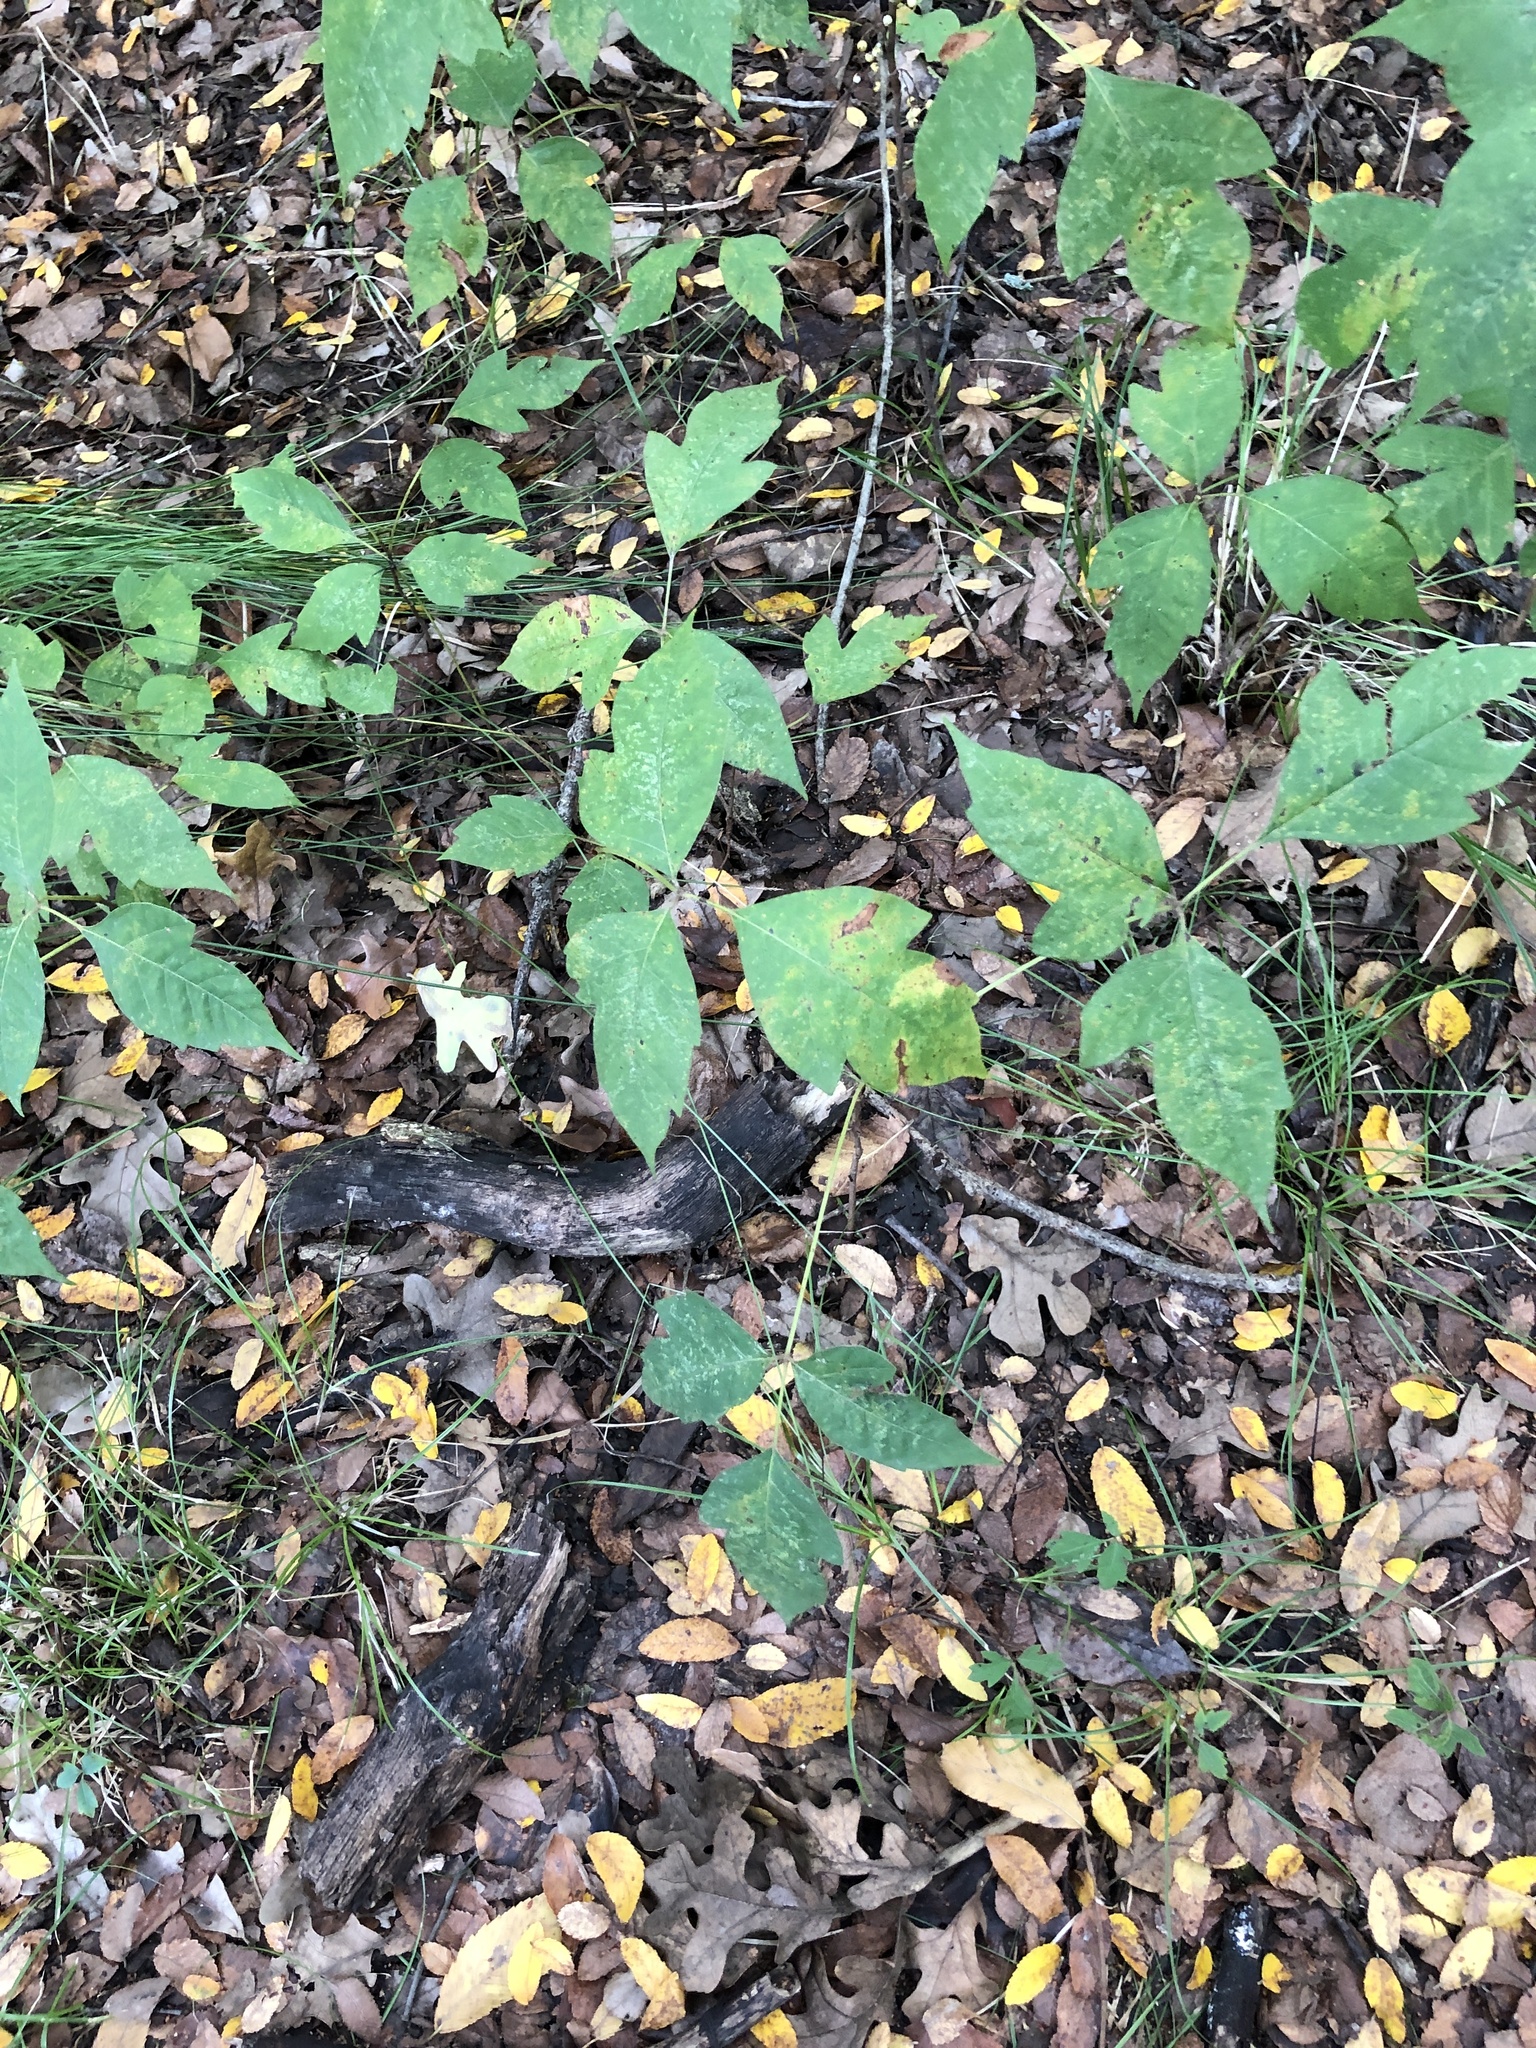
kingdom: Plantae
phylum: Tracheophyta
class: Magnoliopsida
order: Sapindales
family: Anacardiaceae
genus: Toxicodendron
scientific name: Toxicodendron radicans
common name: Poison ivy
